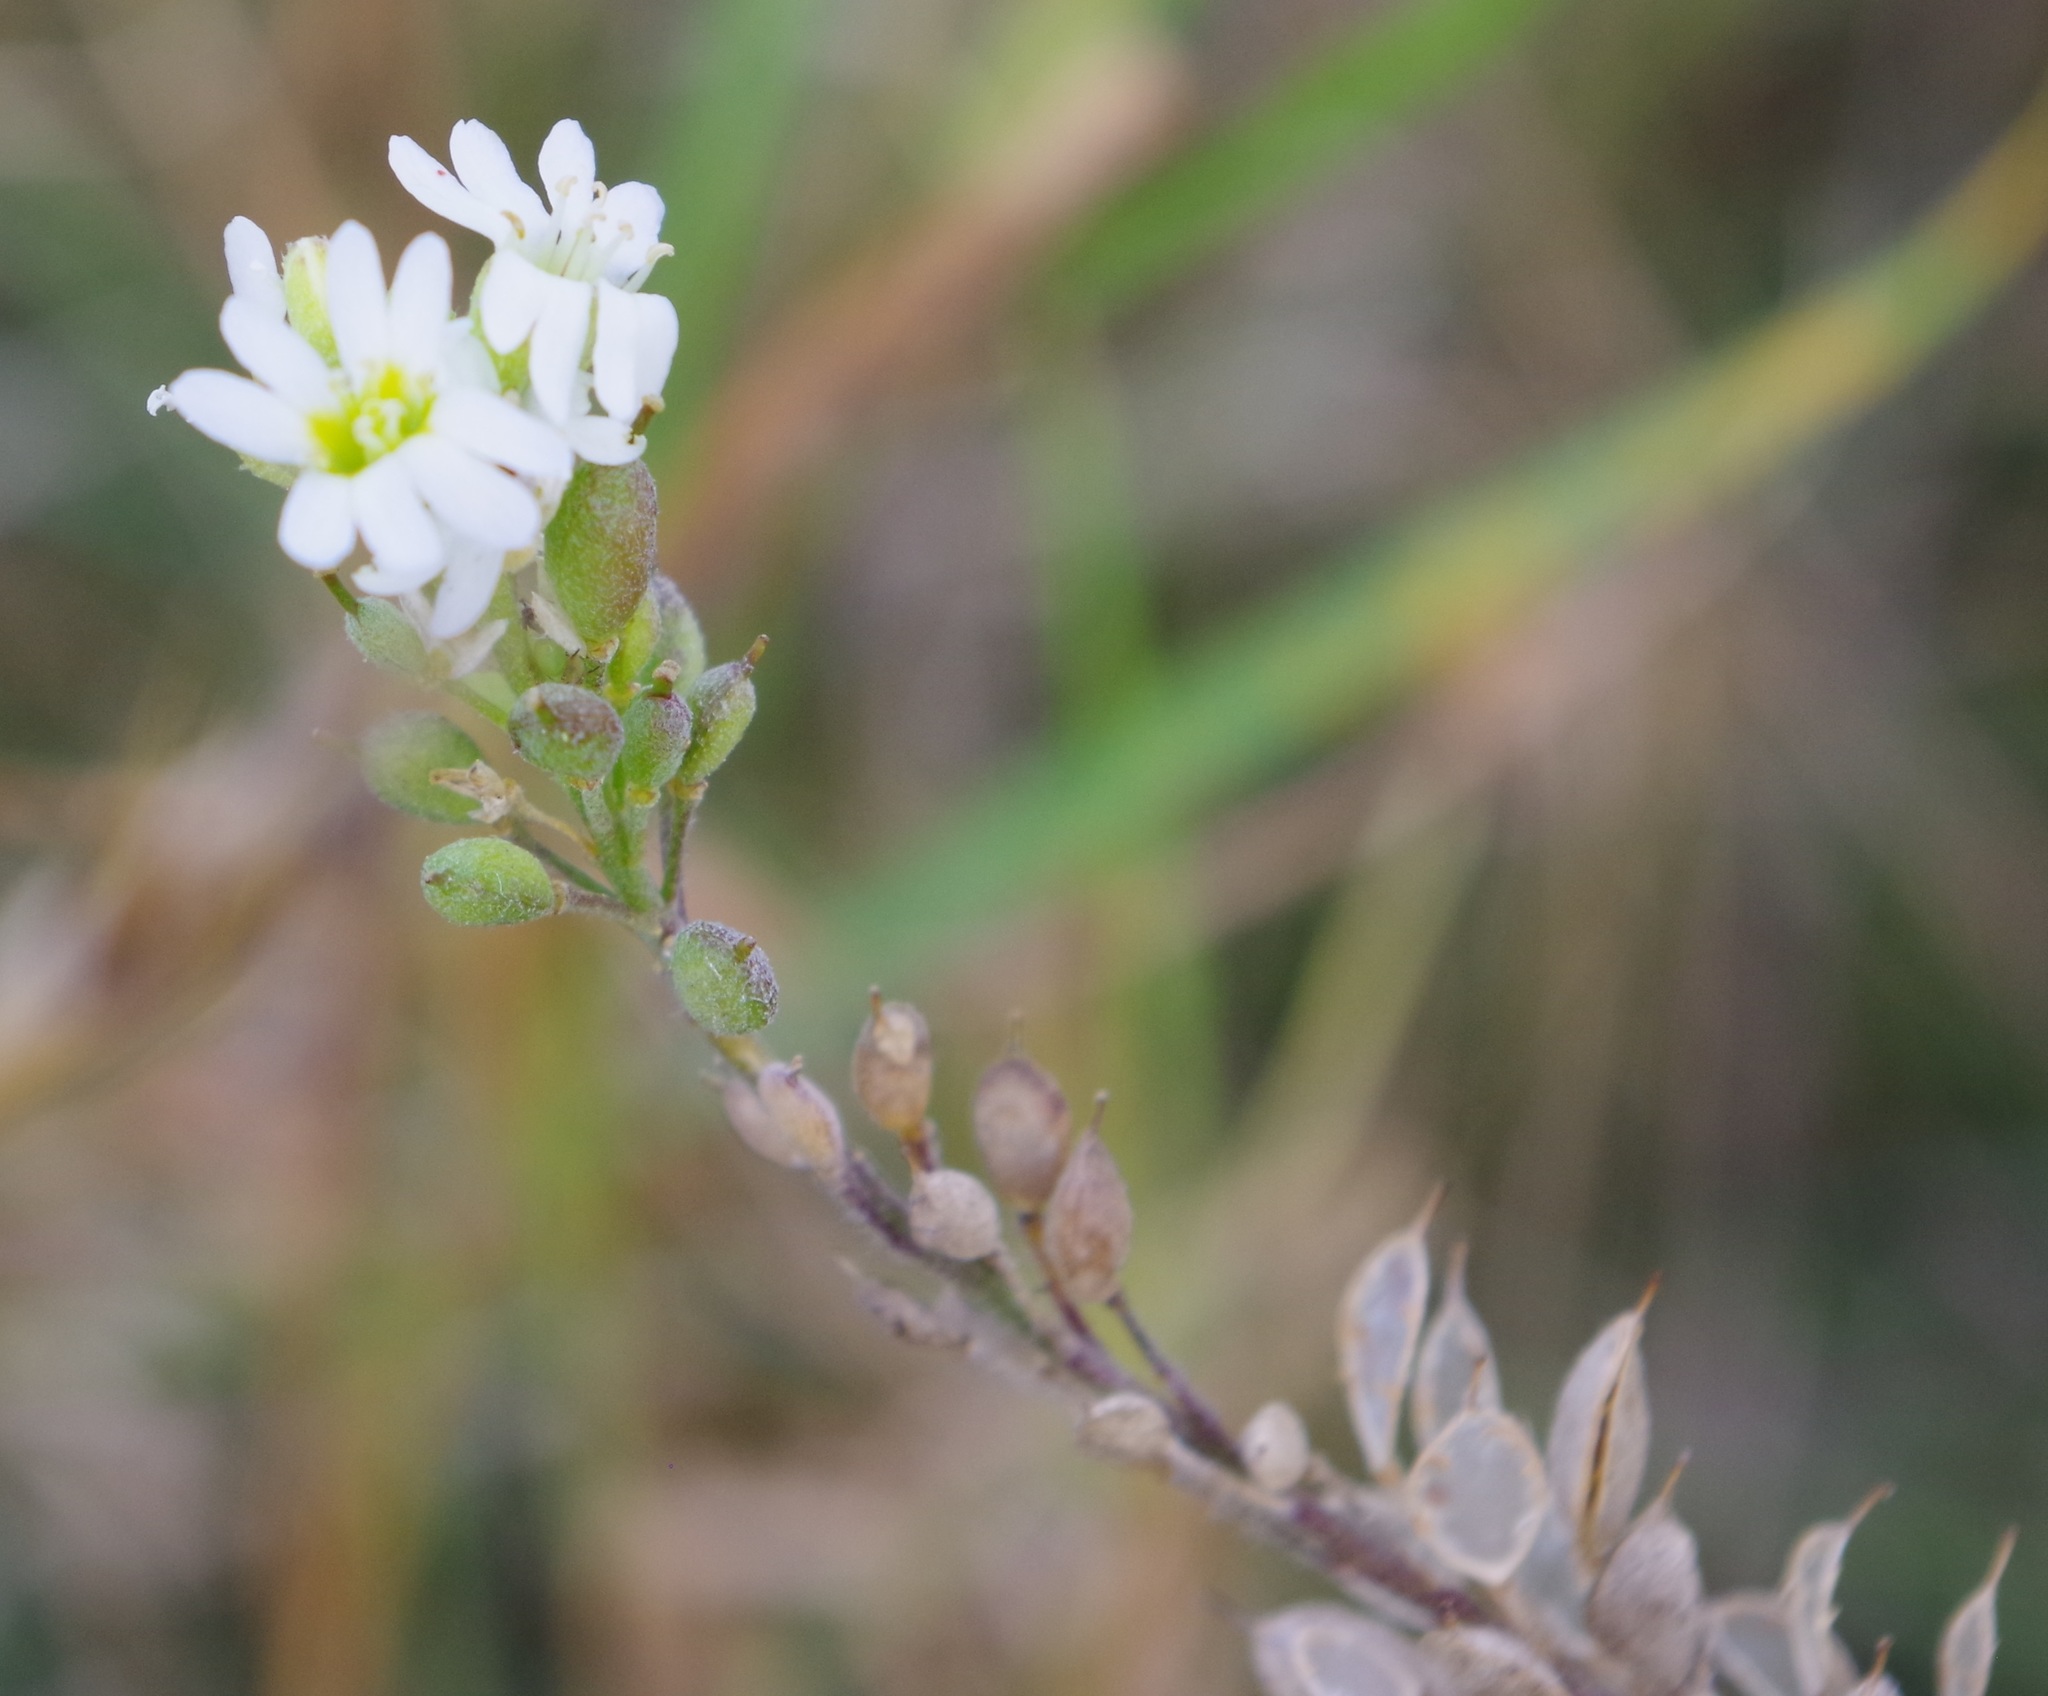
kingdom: Plantae
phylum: Tracheophyta
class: Magnoliopsida
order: Brassicales
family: Brassicaceae
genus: Berteroa
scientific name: Berteroa incana
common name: Hoary alison
